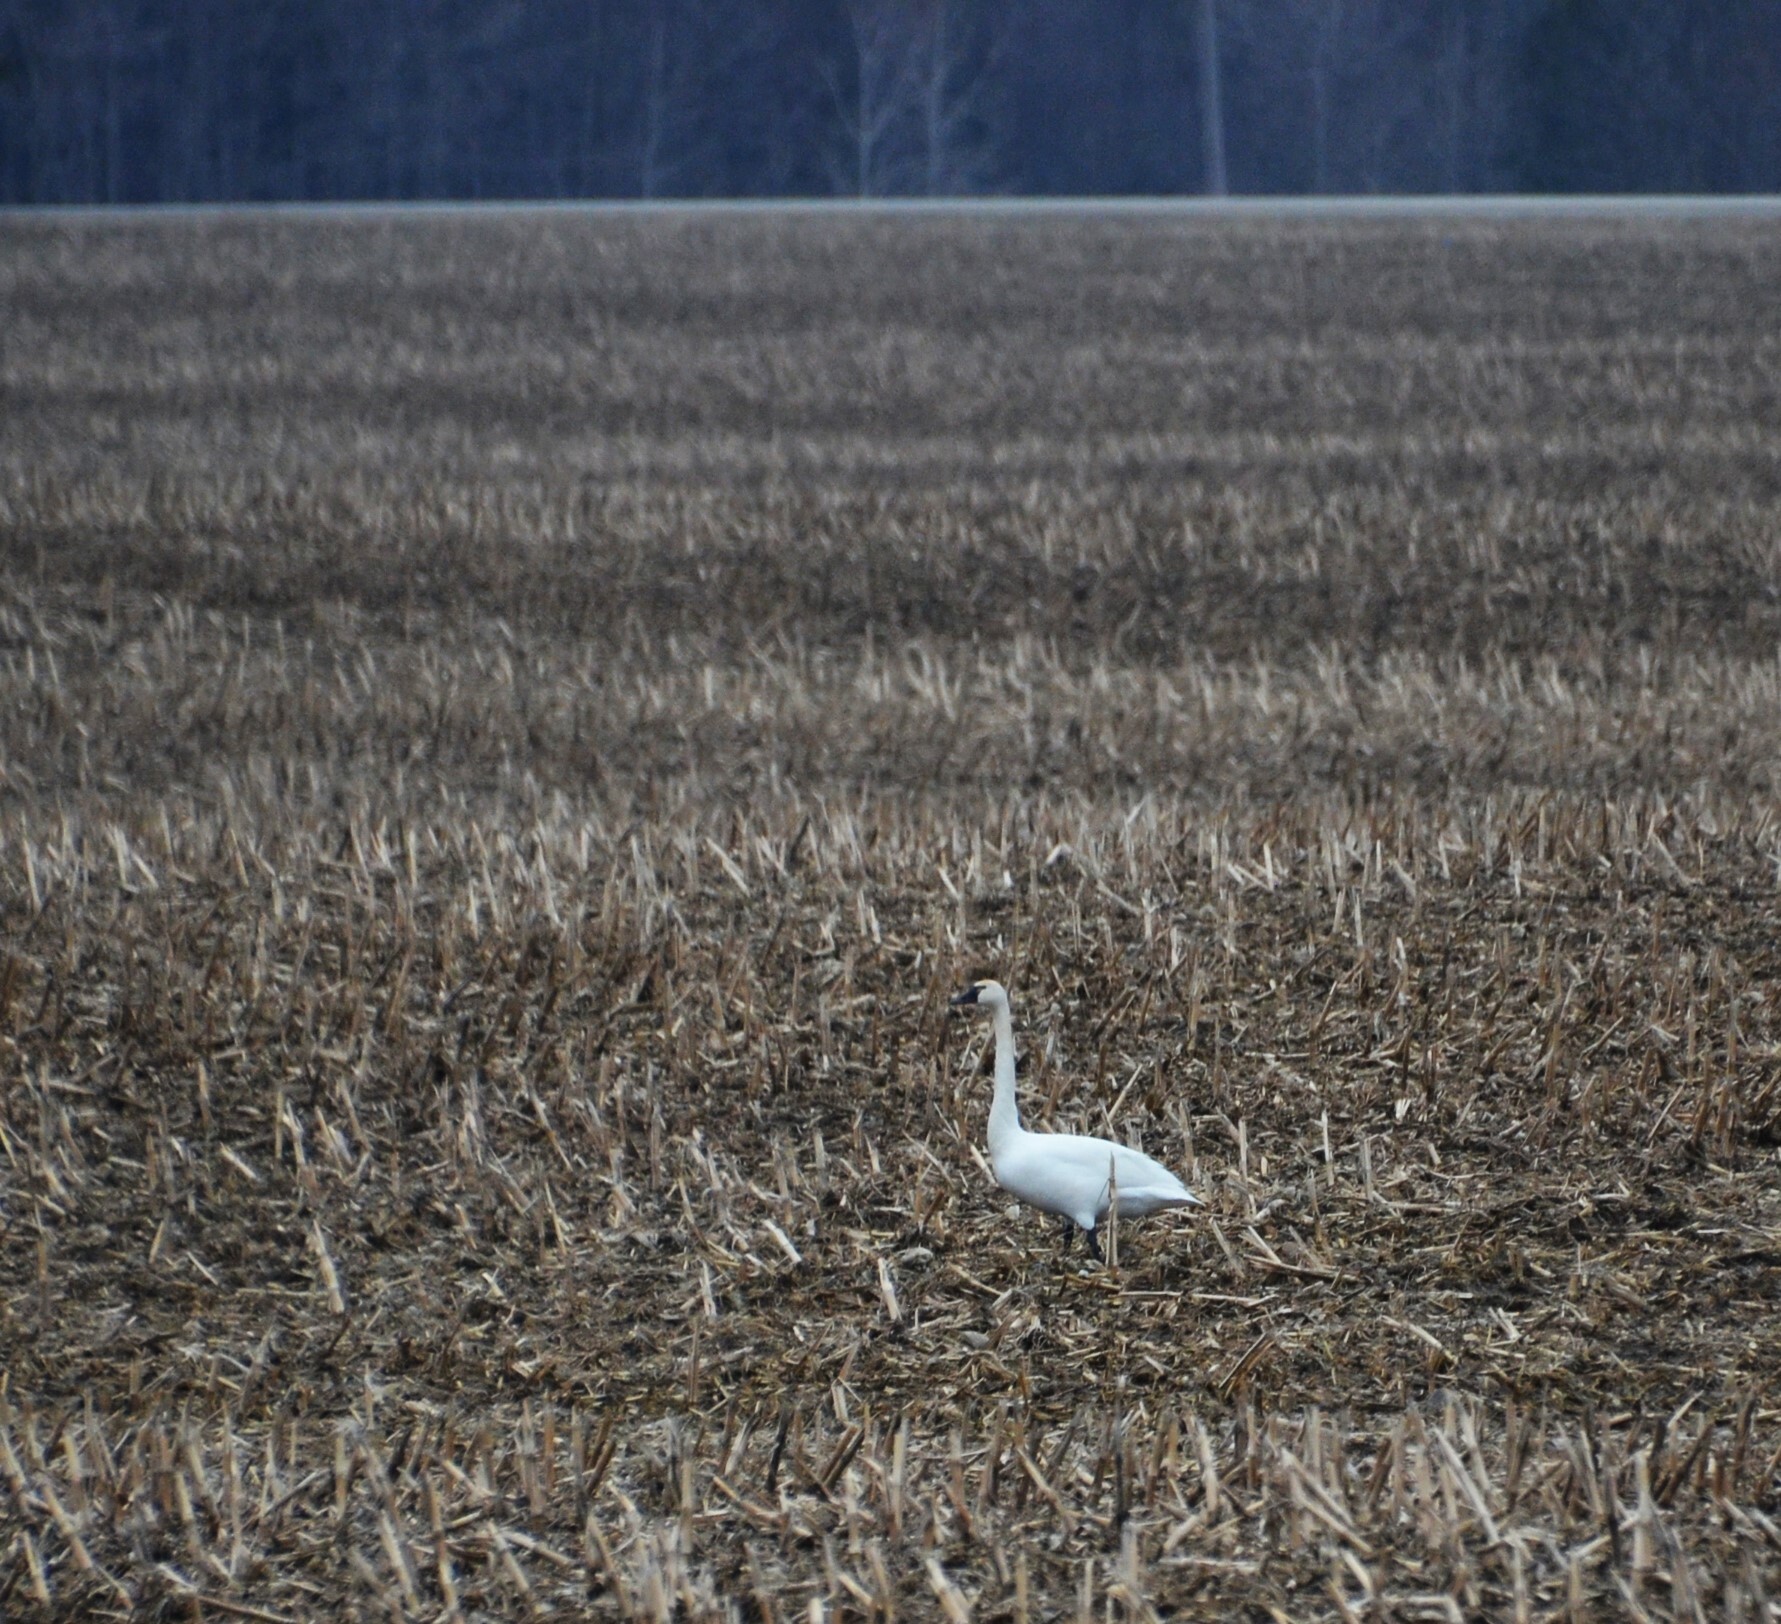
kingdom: Animalia
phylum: Chordata
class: Aves
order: Anseriformes
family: Anatidae
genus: Cygnus
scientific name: Cygnus columbianus
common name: Tundra swan
